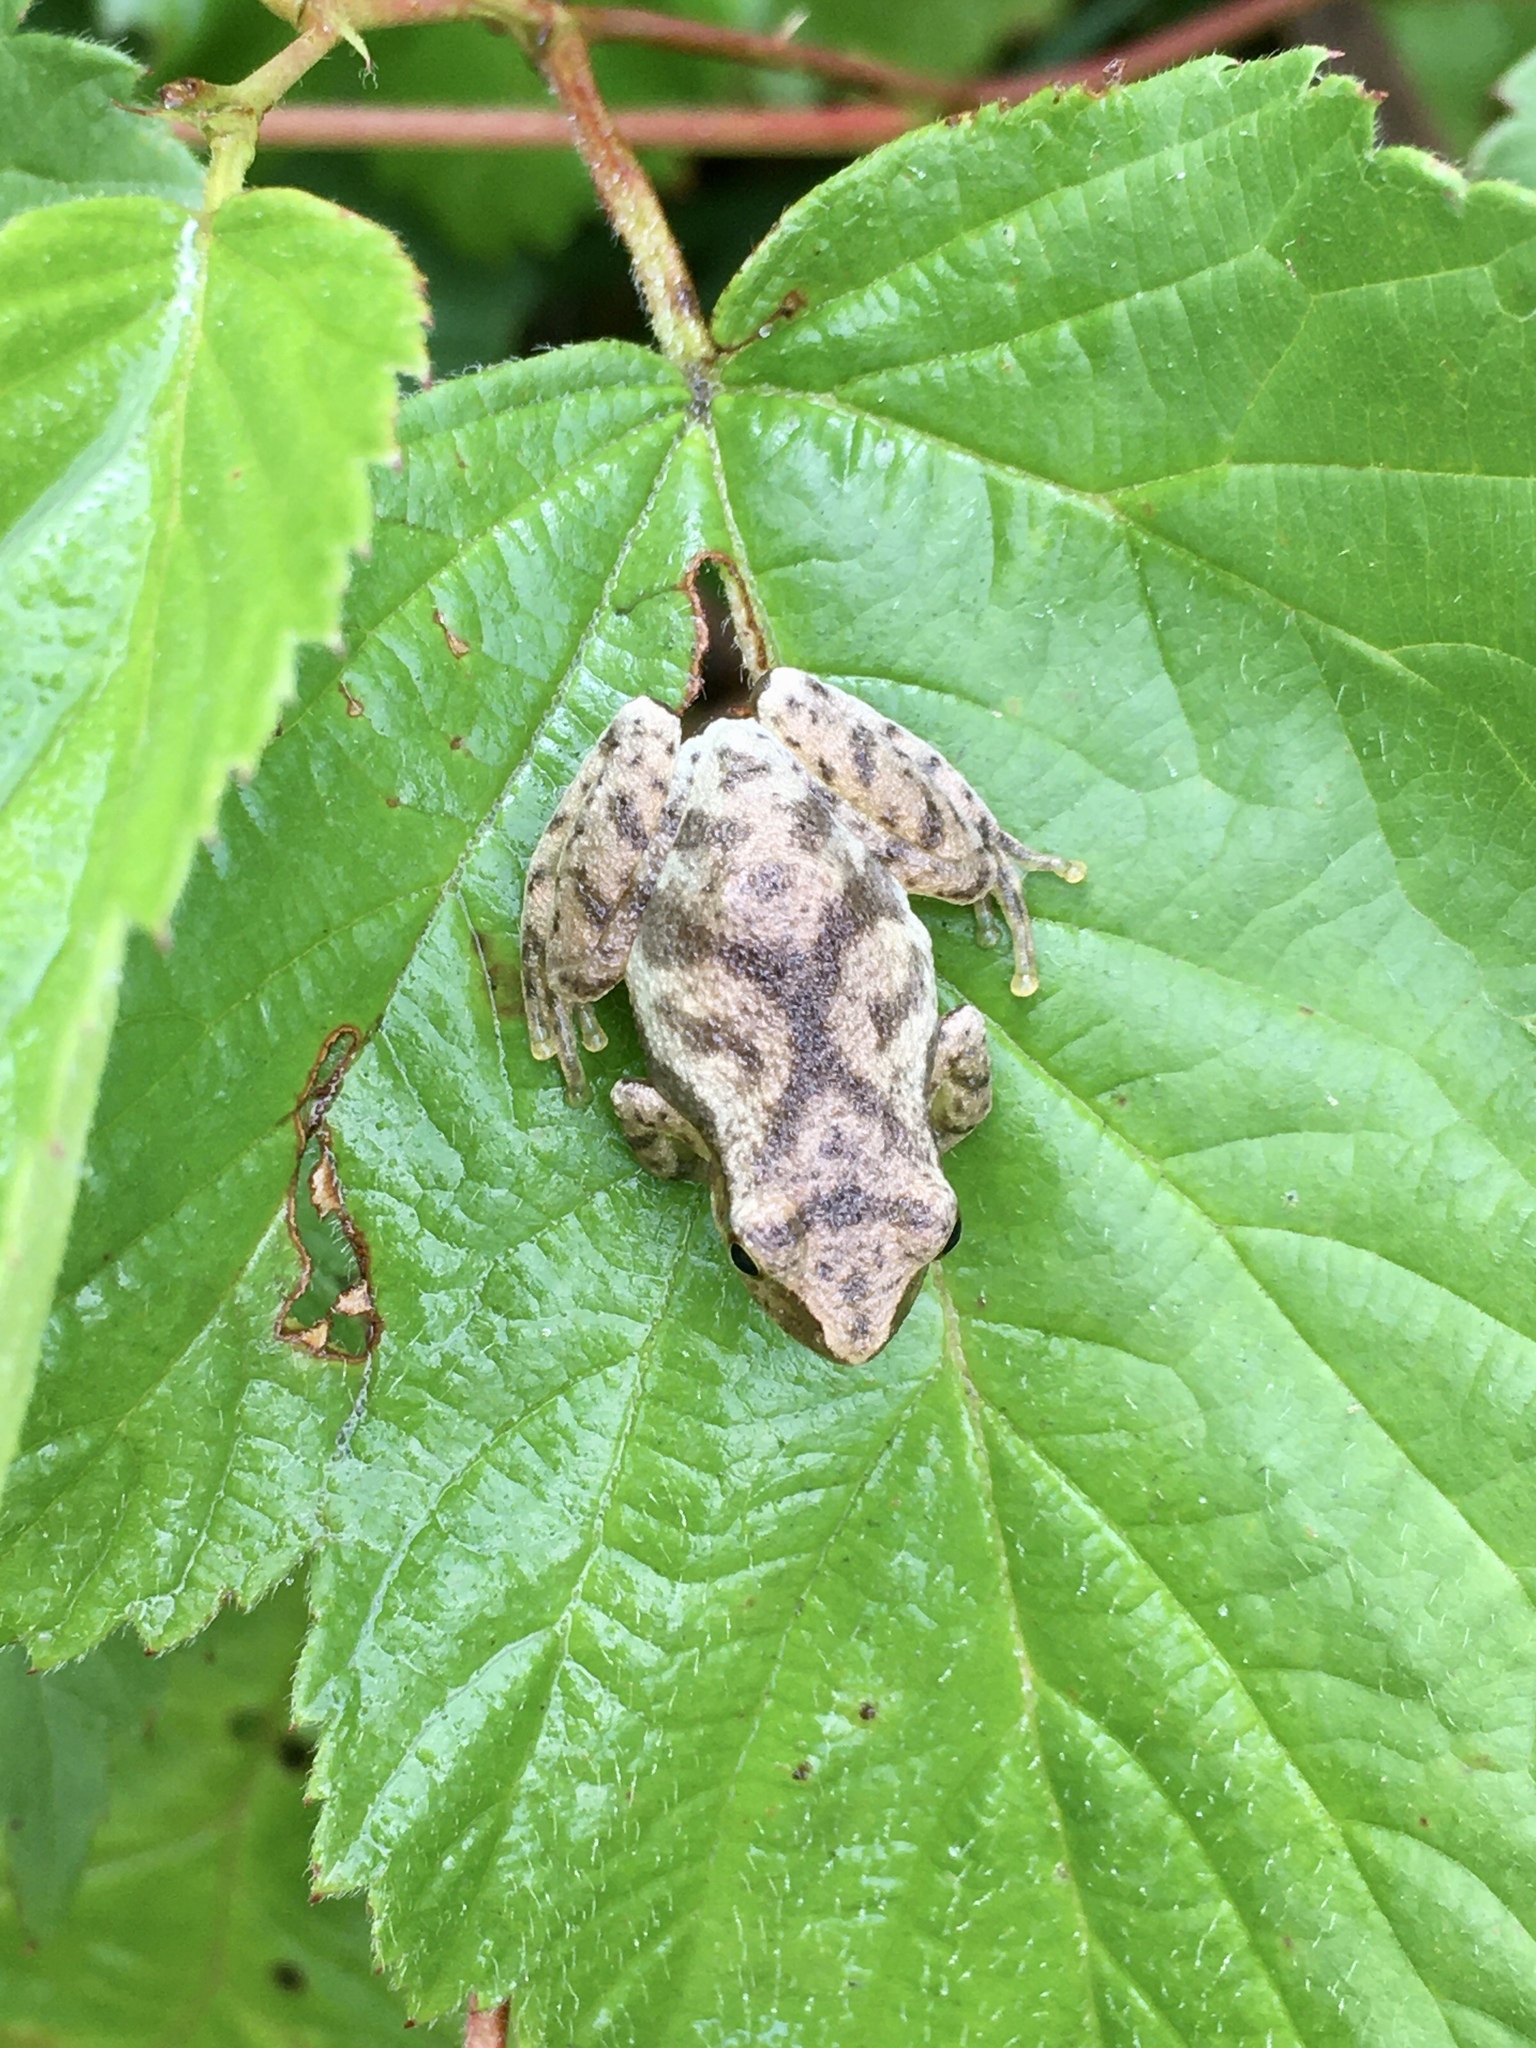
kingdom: Animalia
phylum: Chordata
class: Amphibia
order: Anura
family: Hylidae
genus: Pseudacris
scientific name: Pseudacris crucifer
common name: Spring peeper
